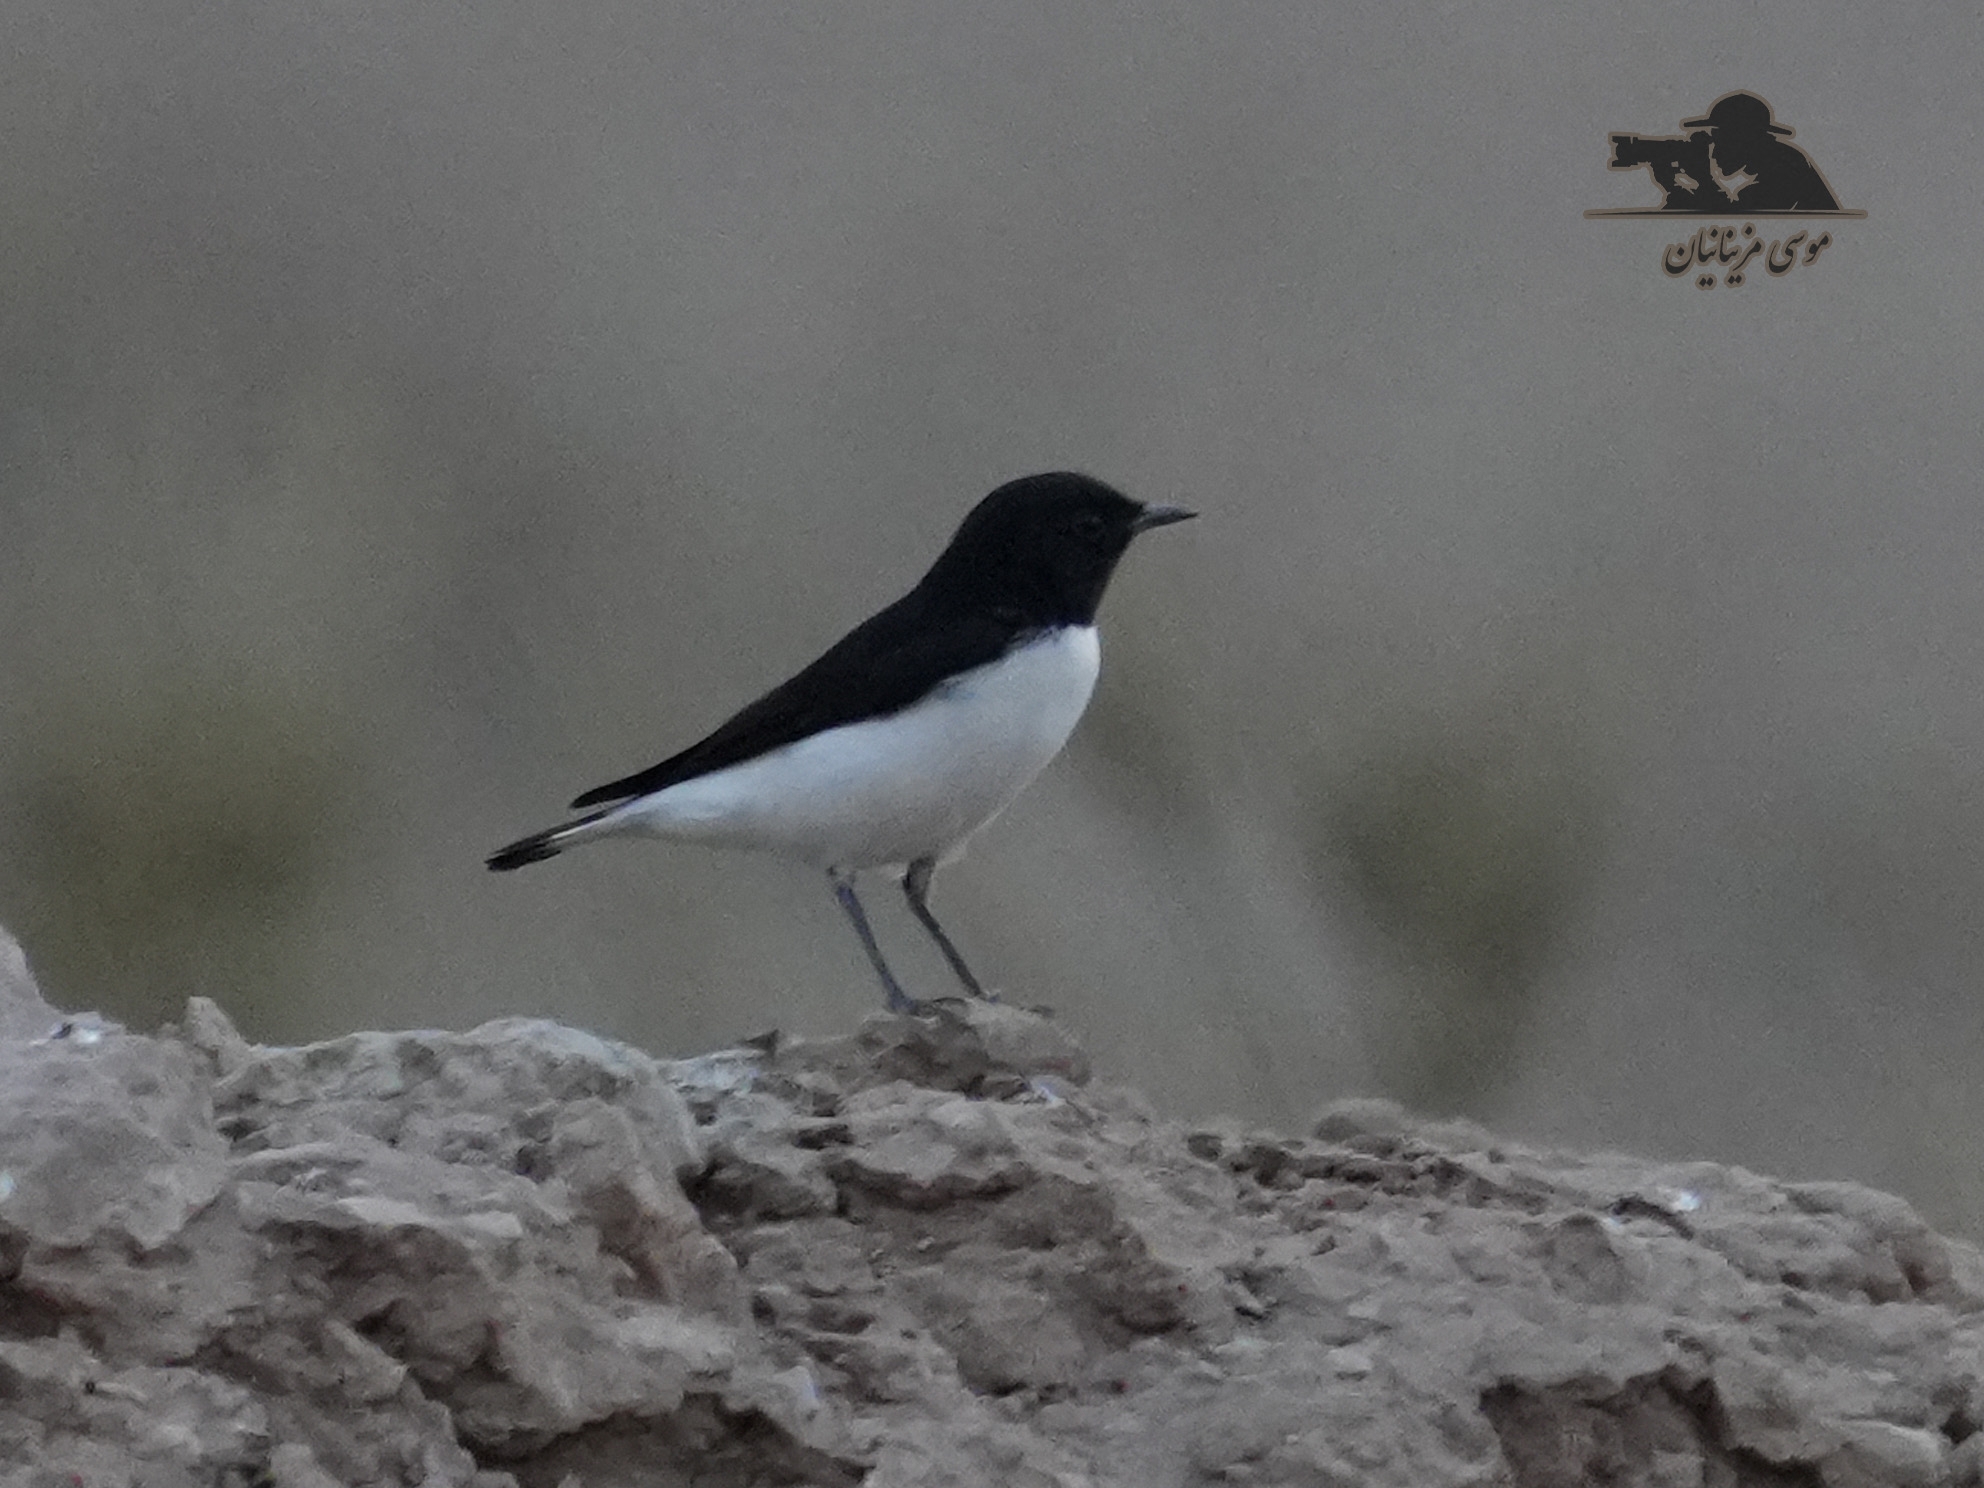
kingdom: Animalia
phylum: Chordata
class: Aves
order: Passeriformes
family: Muscicapidae
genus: Oenanthe
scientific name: Oenanthe albonigra
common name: Hume's wheatear
